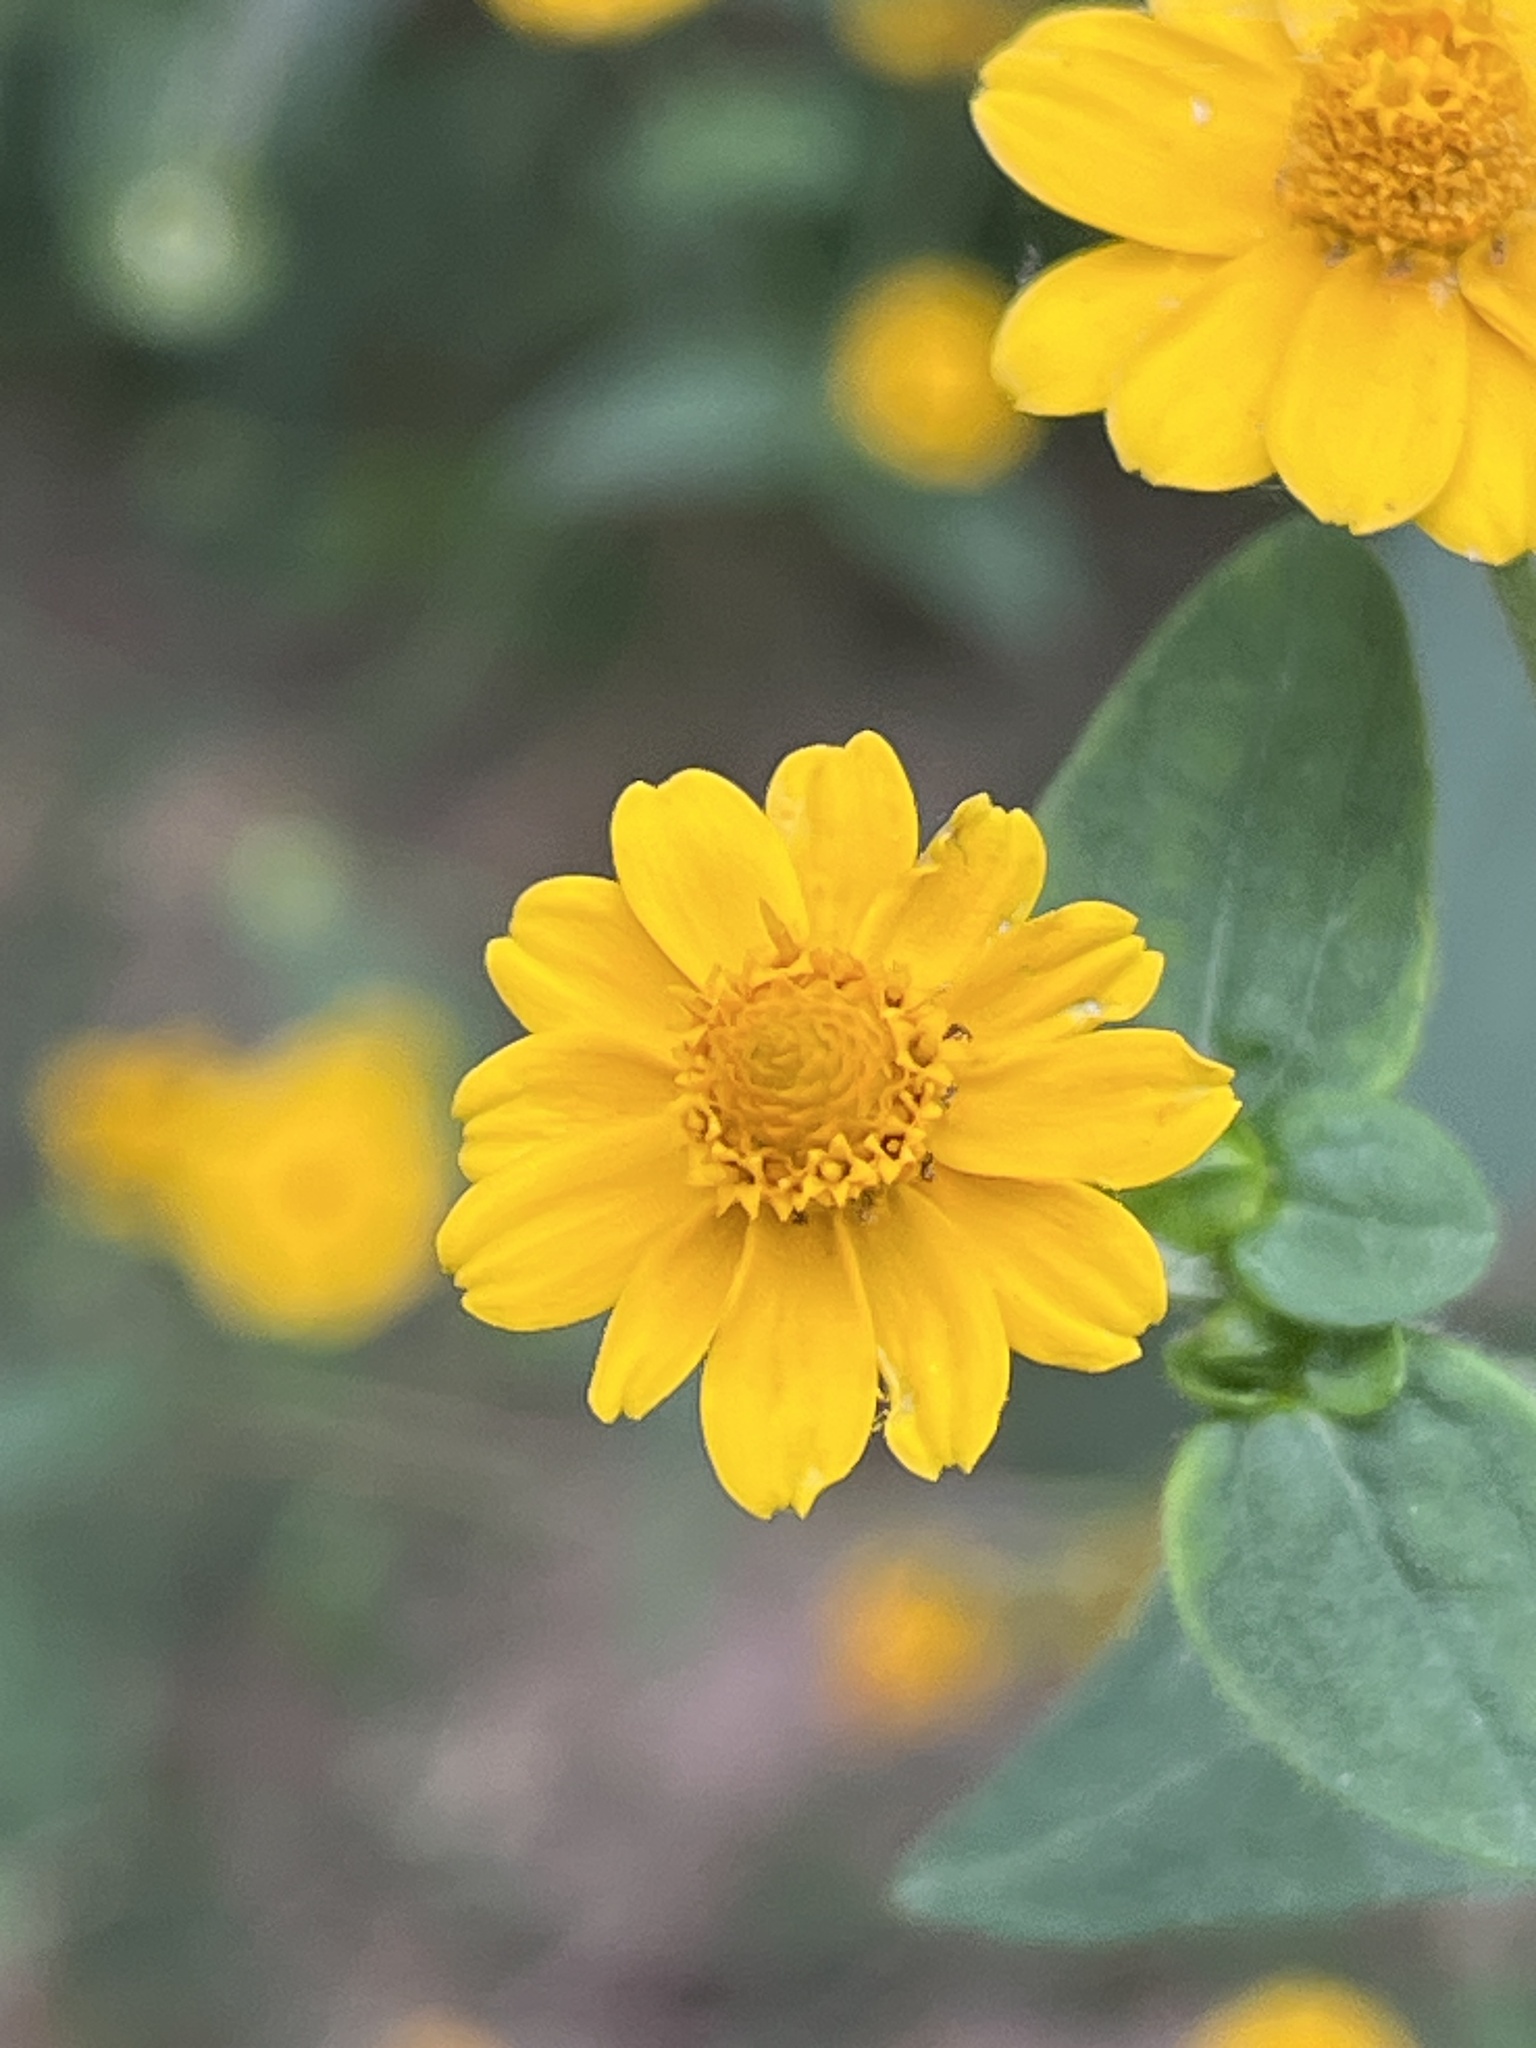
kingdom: Plantae
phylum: Tracheophyta
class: Magnoliopsida
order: Asterales
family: Asteraceae
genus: Melampodium
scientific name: Melampodium divaricatum
